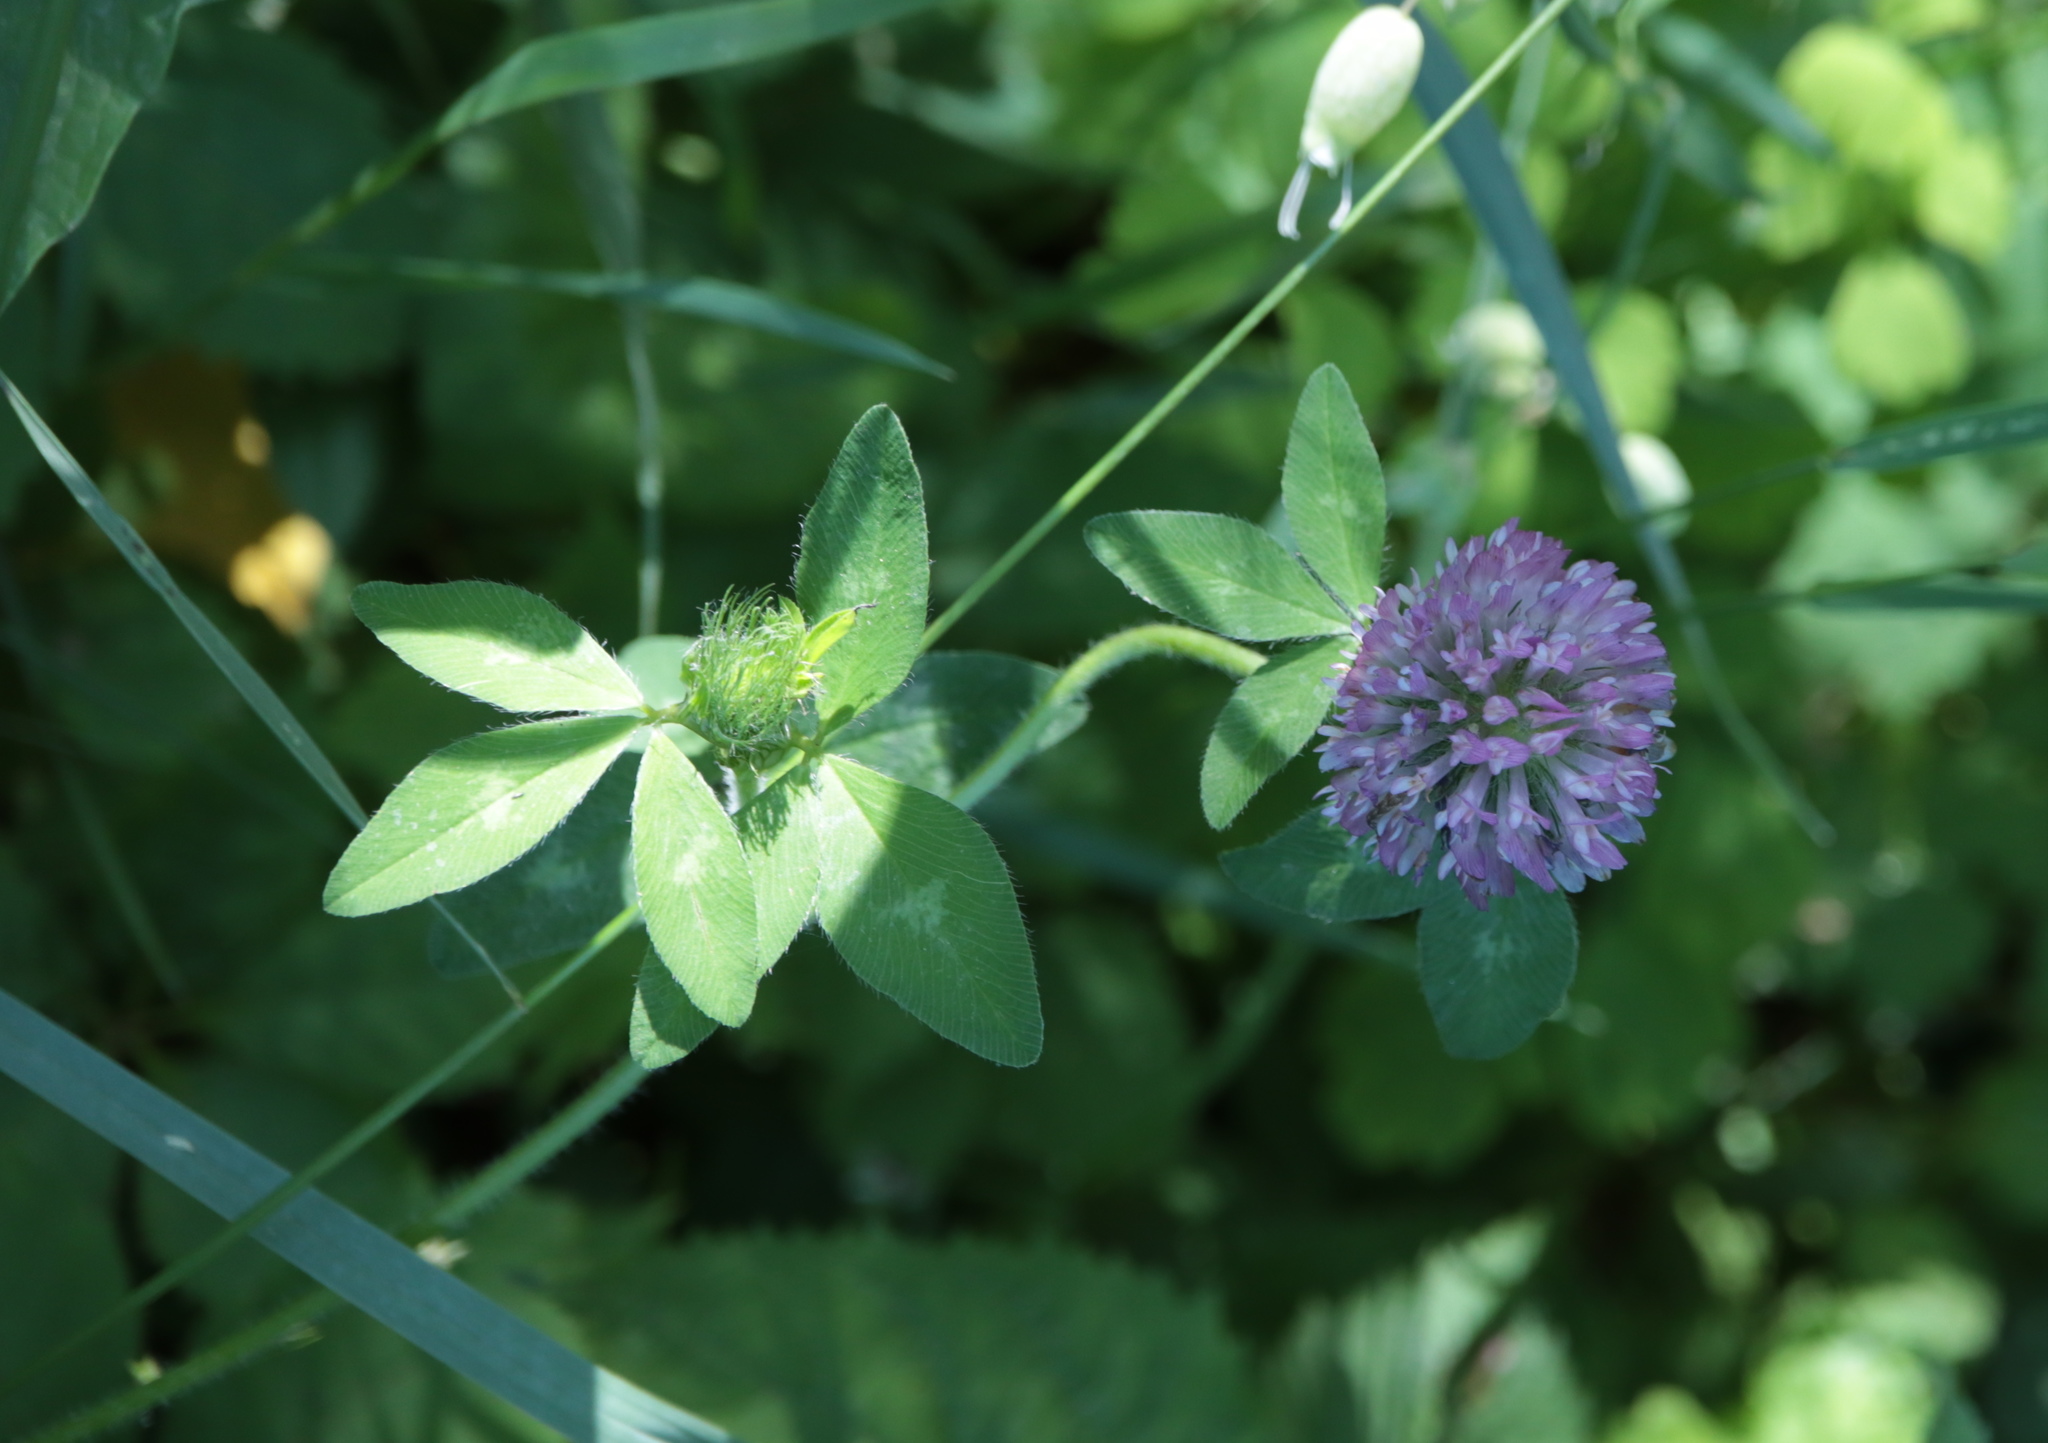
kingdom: Plantae
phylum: Tracheophyta
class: Magnoliopsida
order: Fabales
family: Fabaceae
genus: Trifolium
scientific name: Trifolium pratense
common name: Red clover
